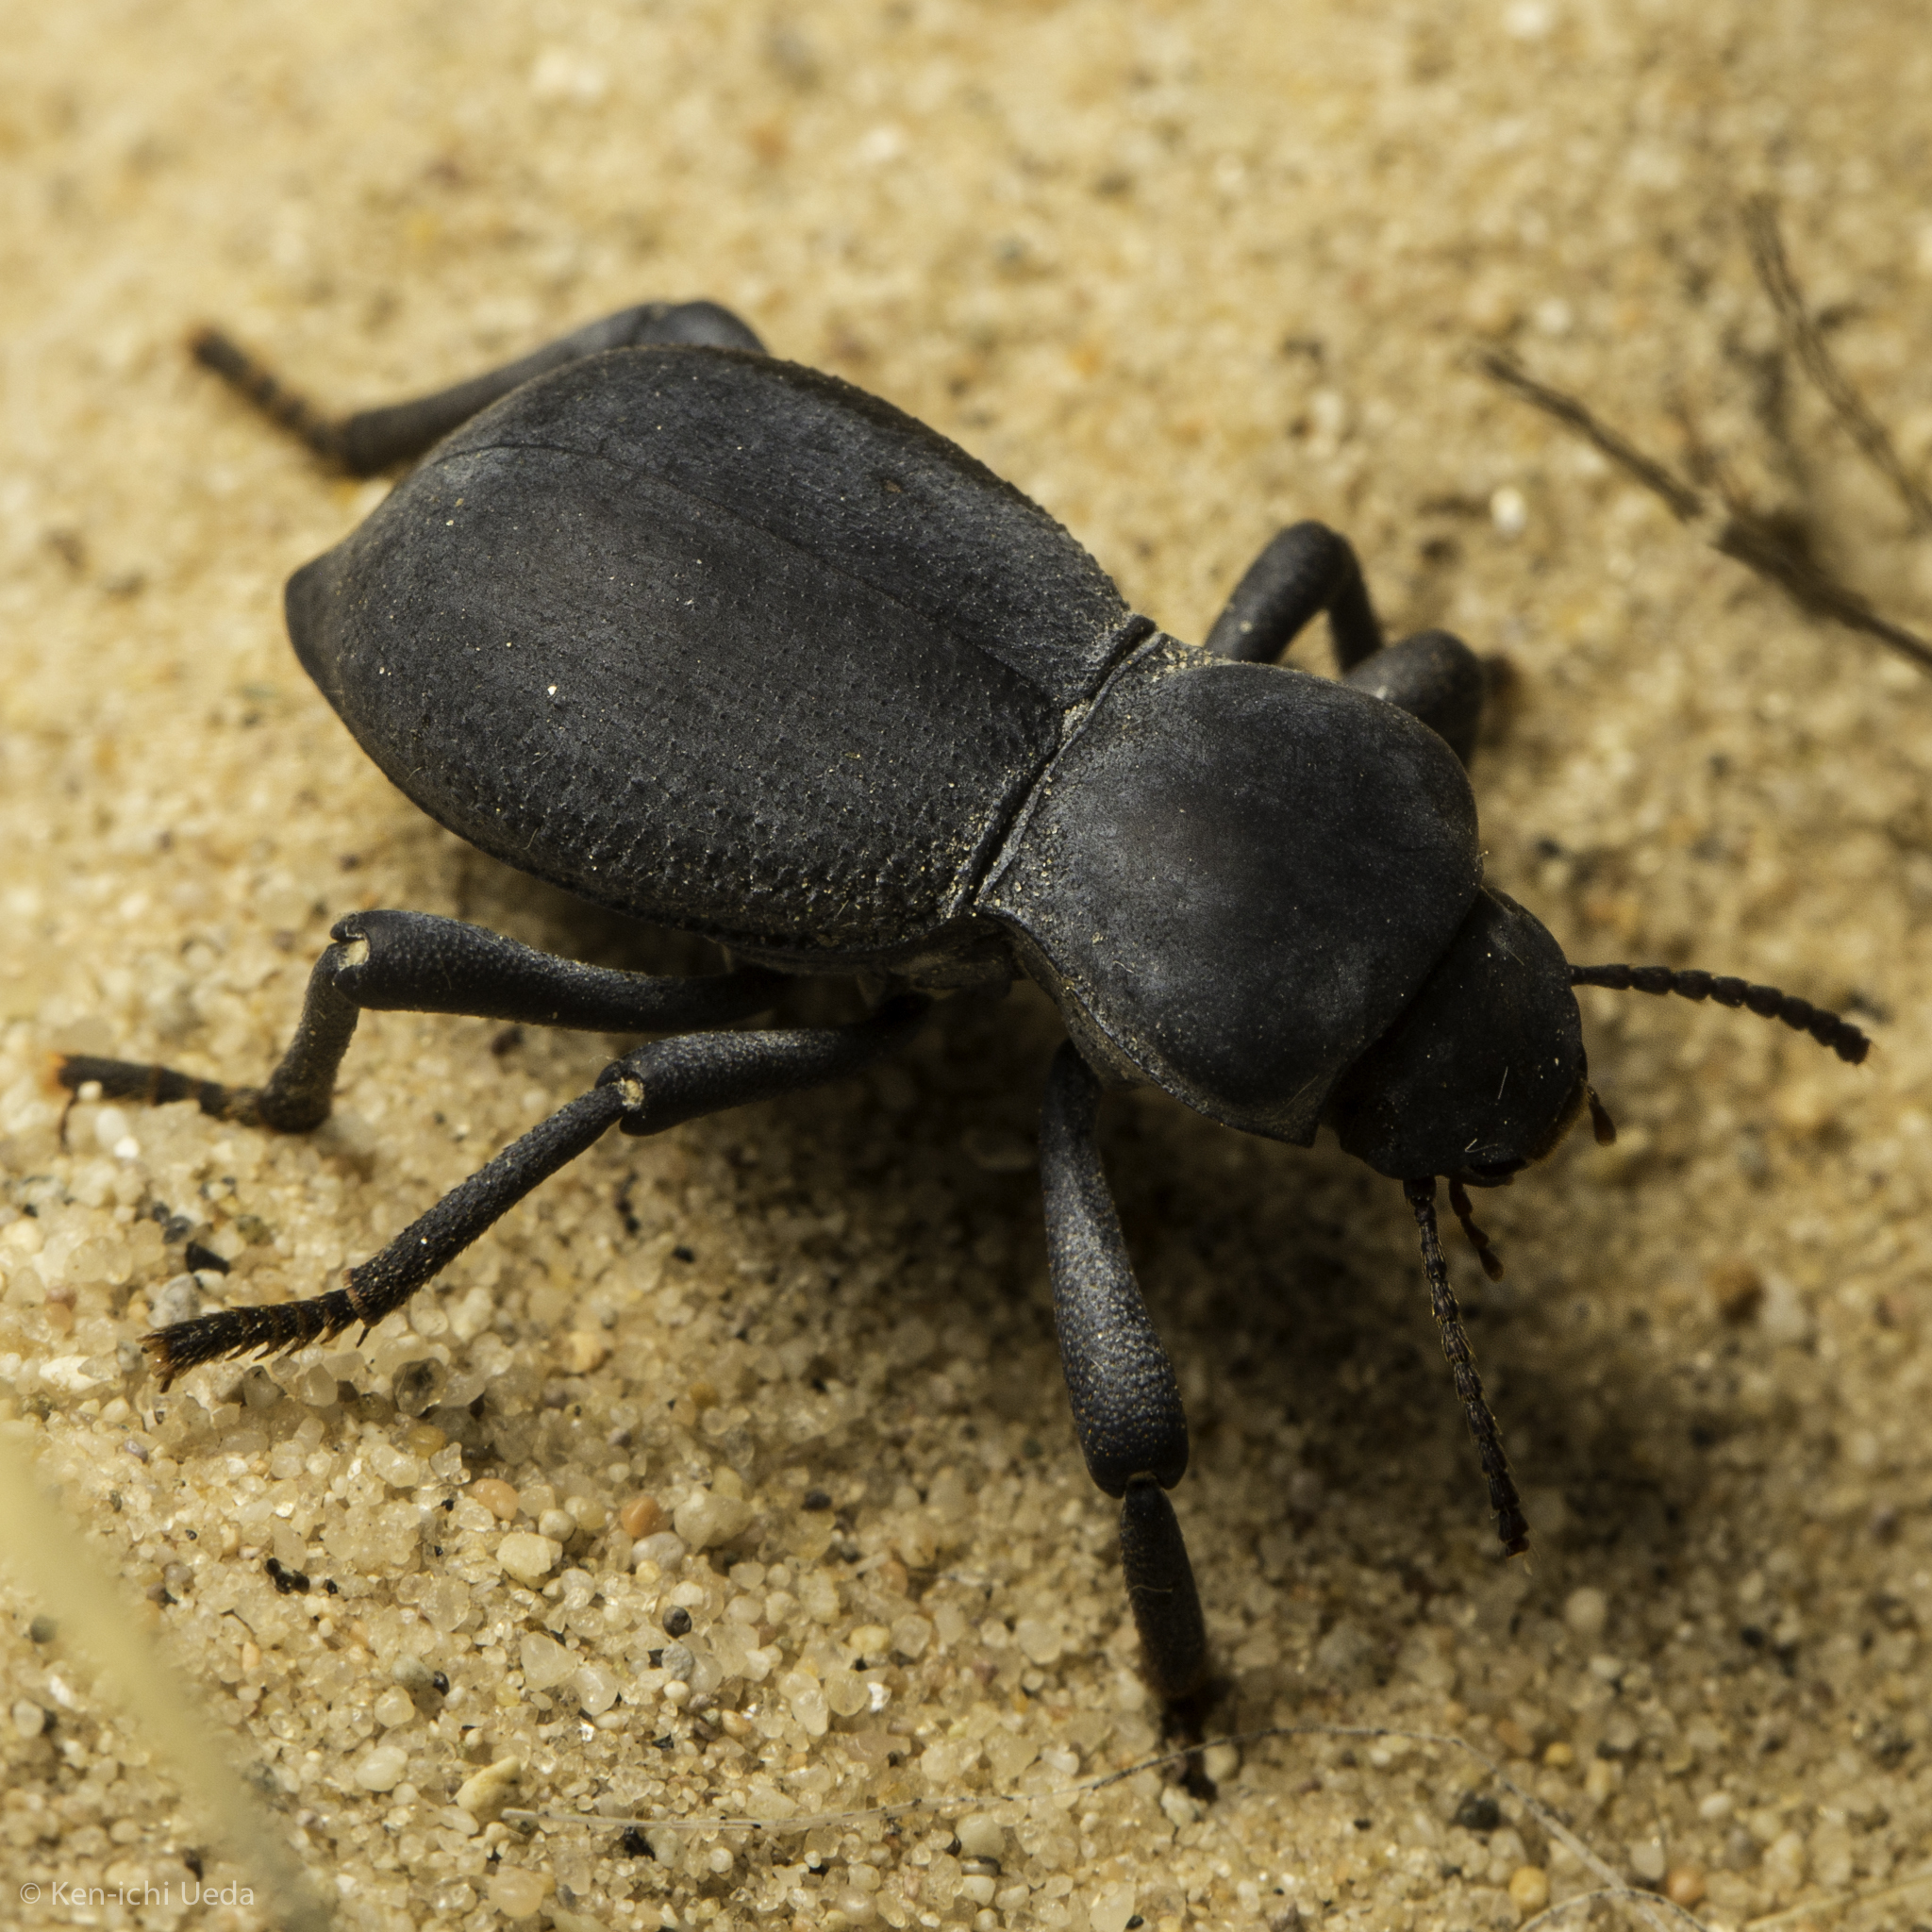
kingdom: Animalia
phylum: Arthropoda
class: Insecta
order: Coleoptera
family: Tenebrionidae
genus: Asbolus
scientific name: Asbolus papillosus
